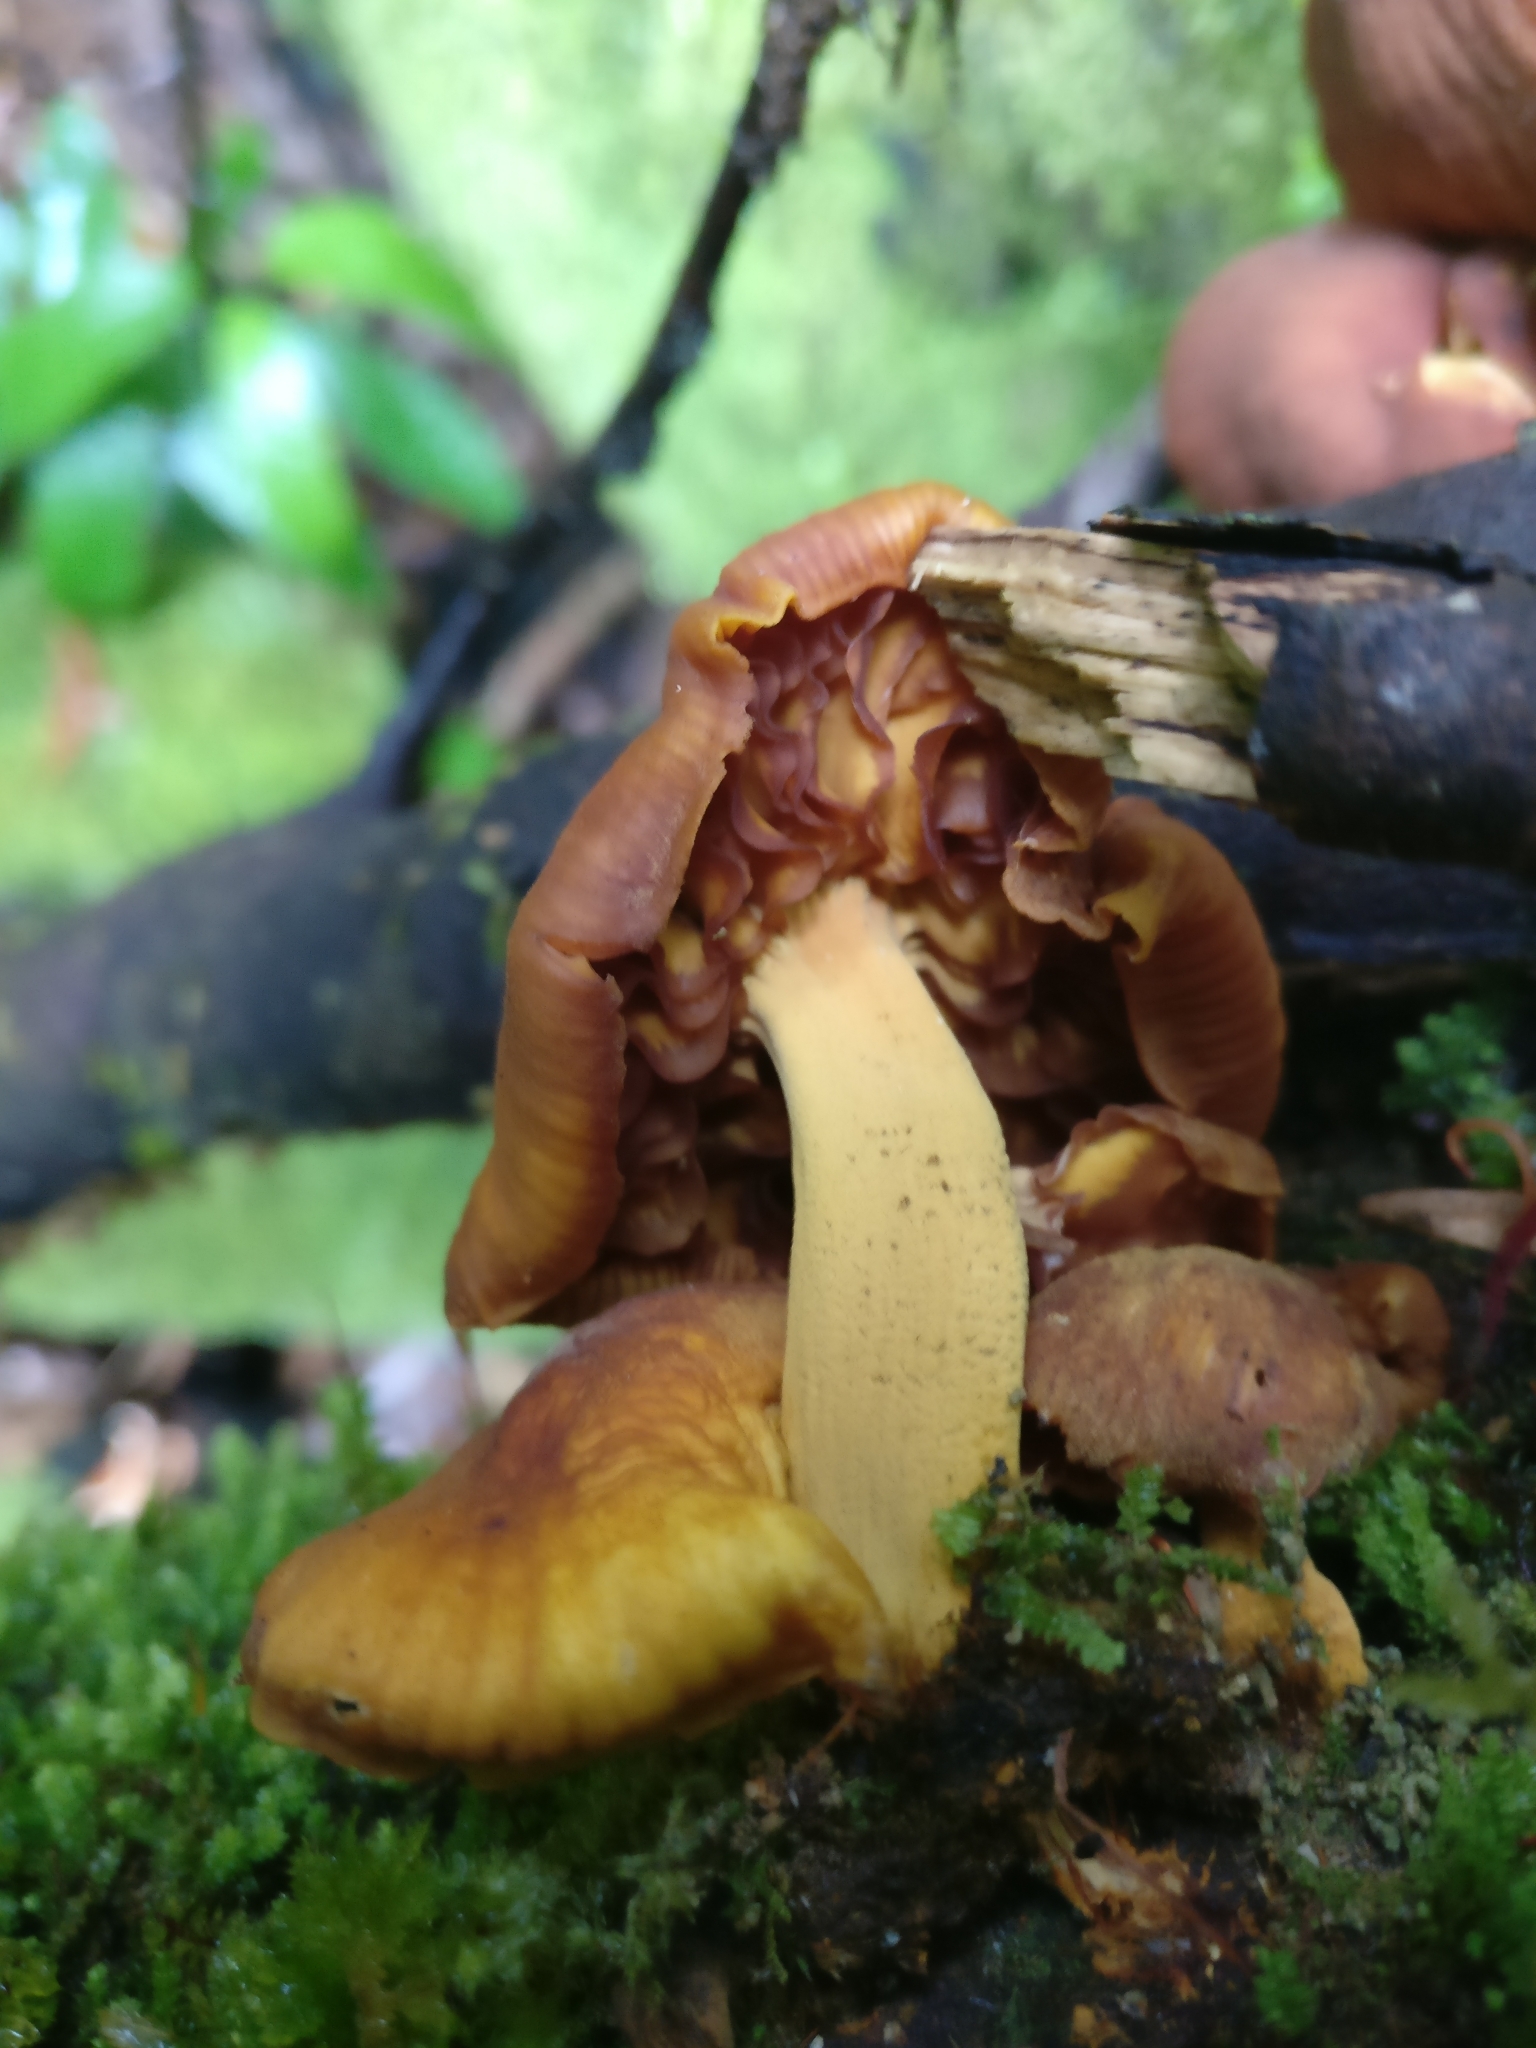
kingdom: Fungi
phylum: Basidiomycota
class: Agaricomycetes
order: Agaricales
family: Mycenaceae
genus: Heimiomyces
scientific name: Heimiomyces velutipes
